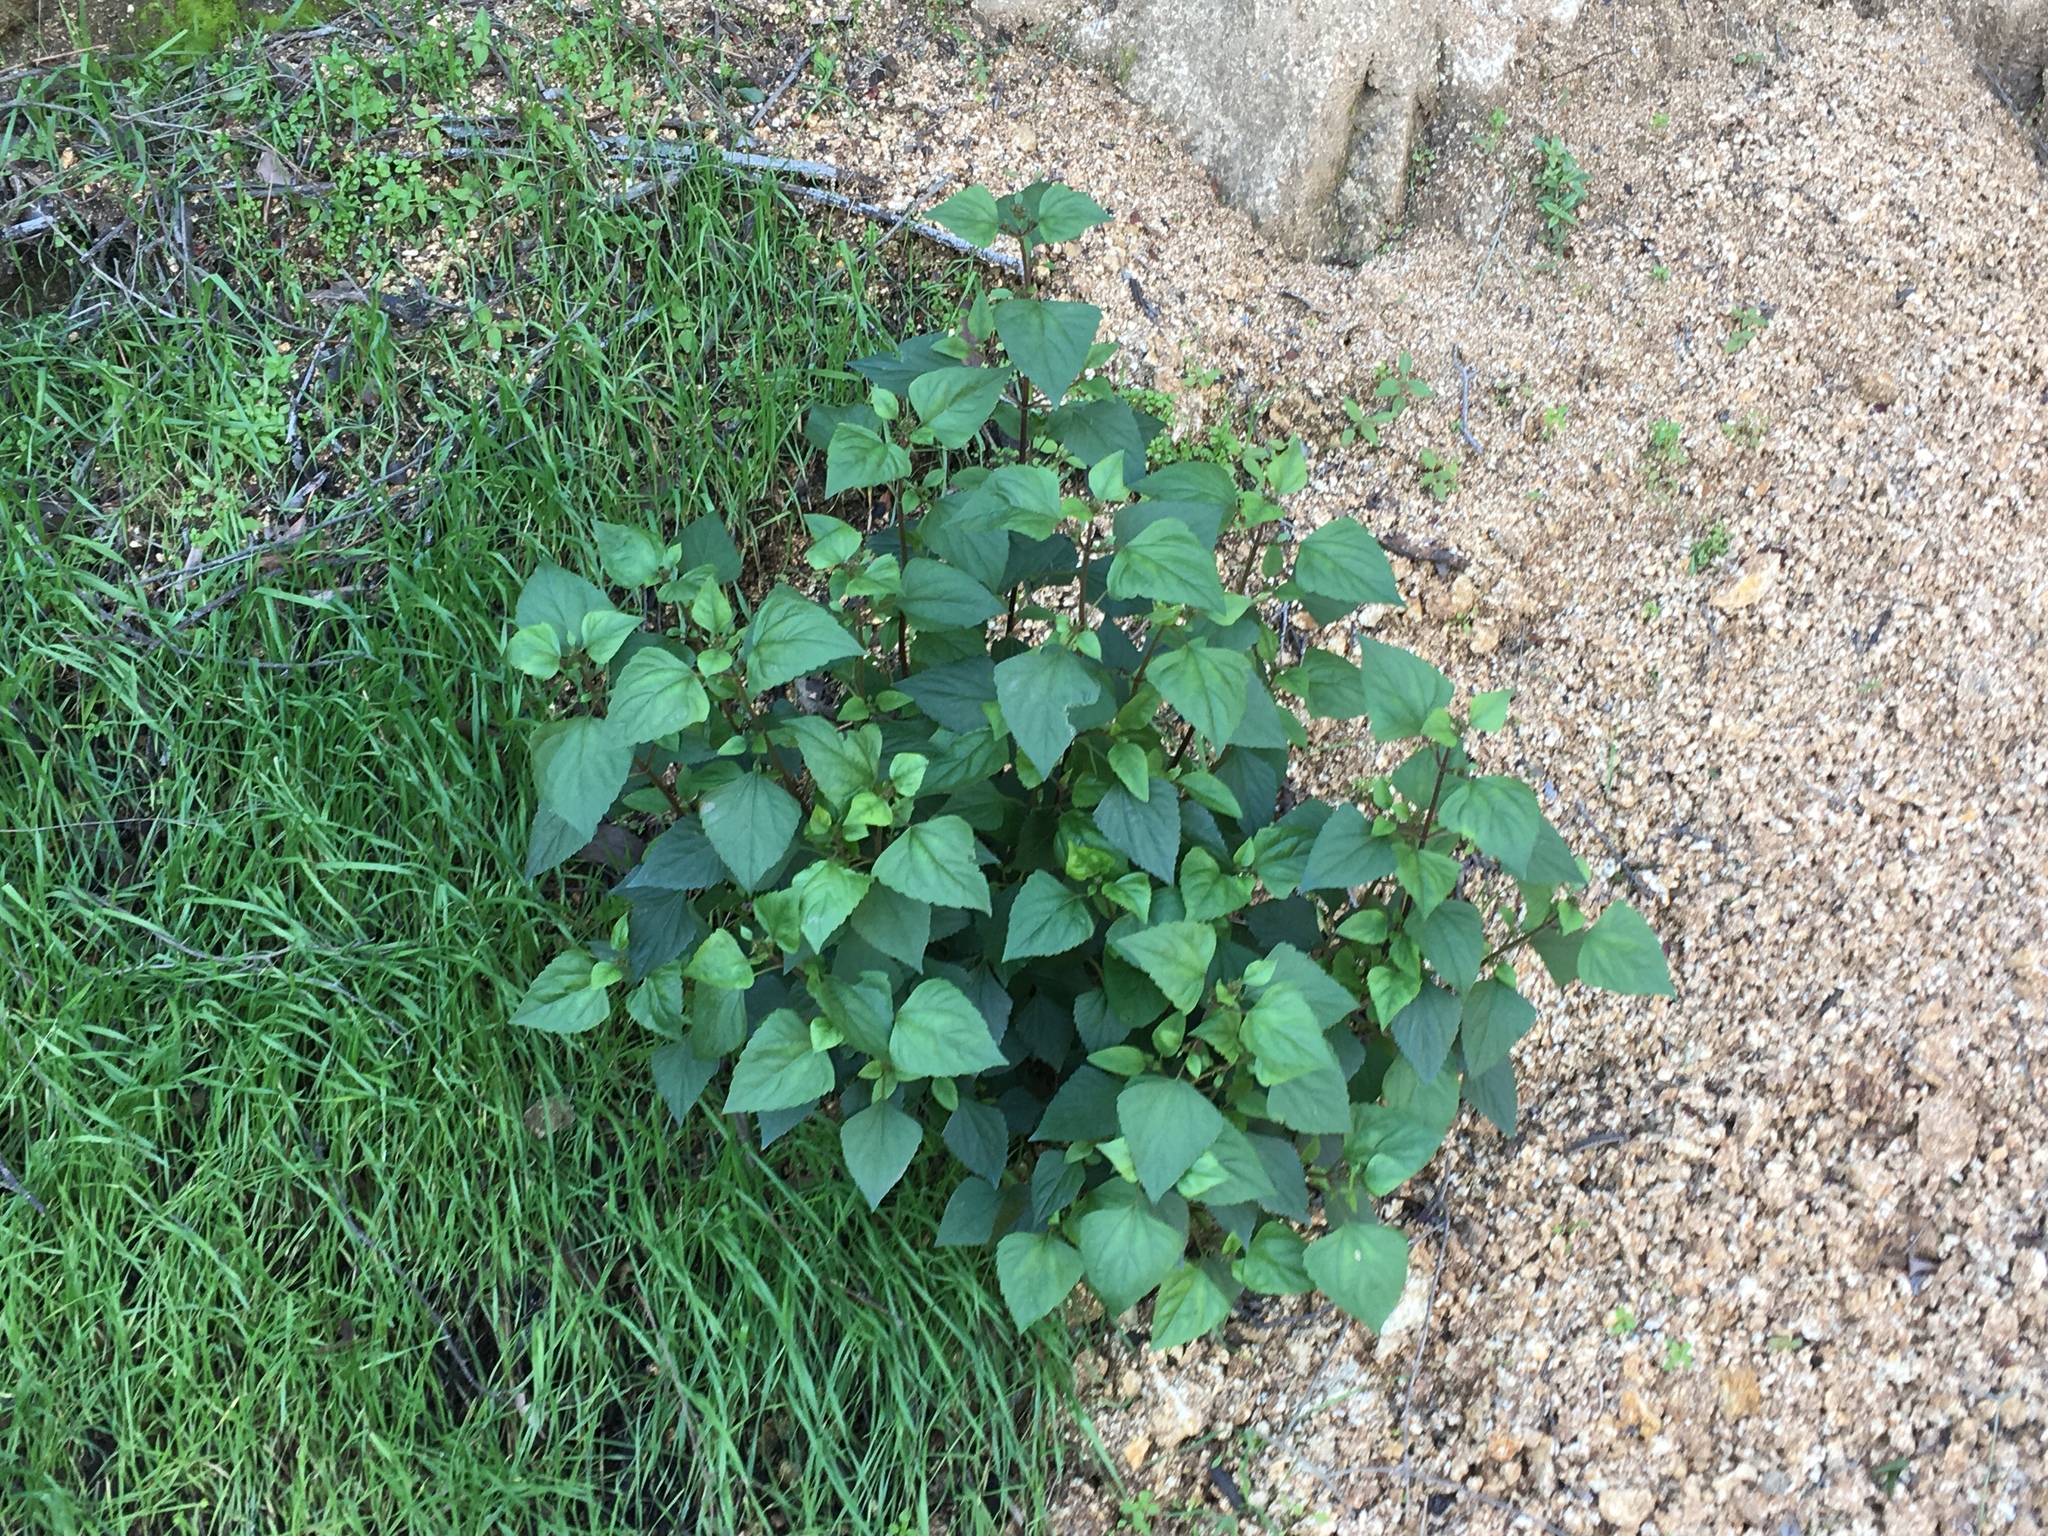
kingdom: Plantae
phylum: Tracheophyta
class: Magnoliopsida
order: Asterales
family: Asteraceae
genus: Ageratina
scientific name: Ageratina adenophora
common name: Sticky snakeroot
